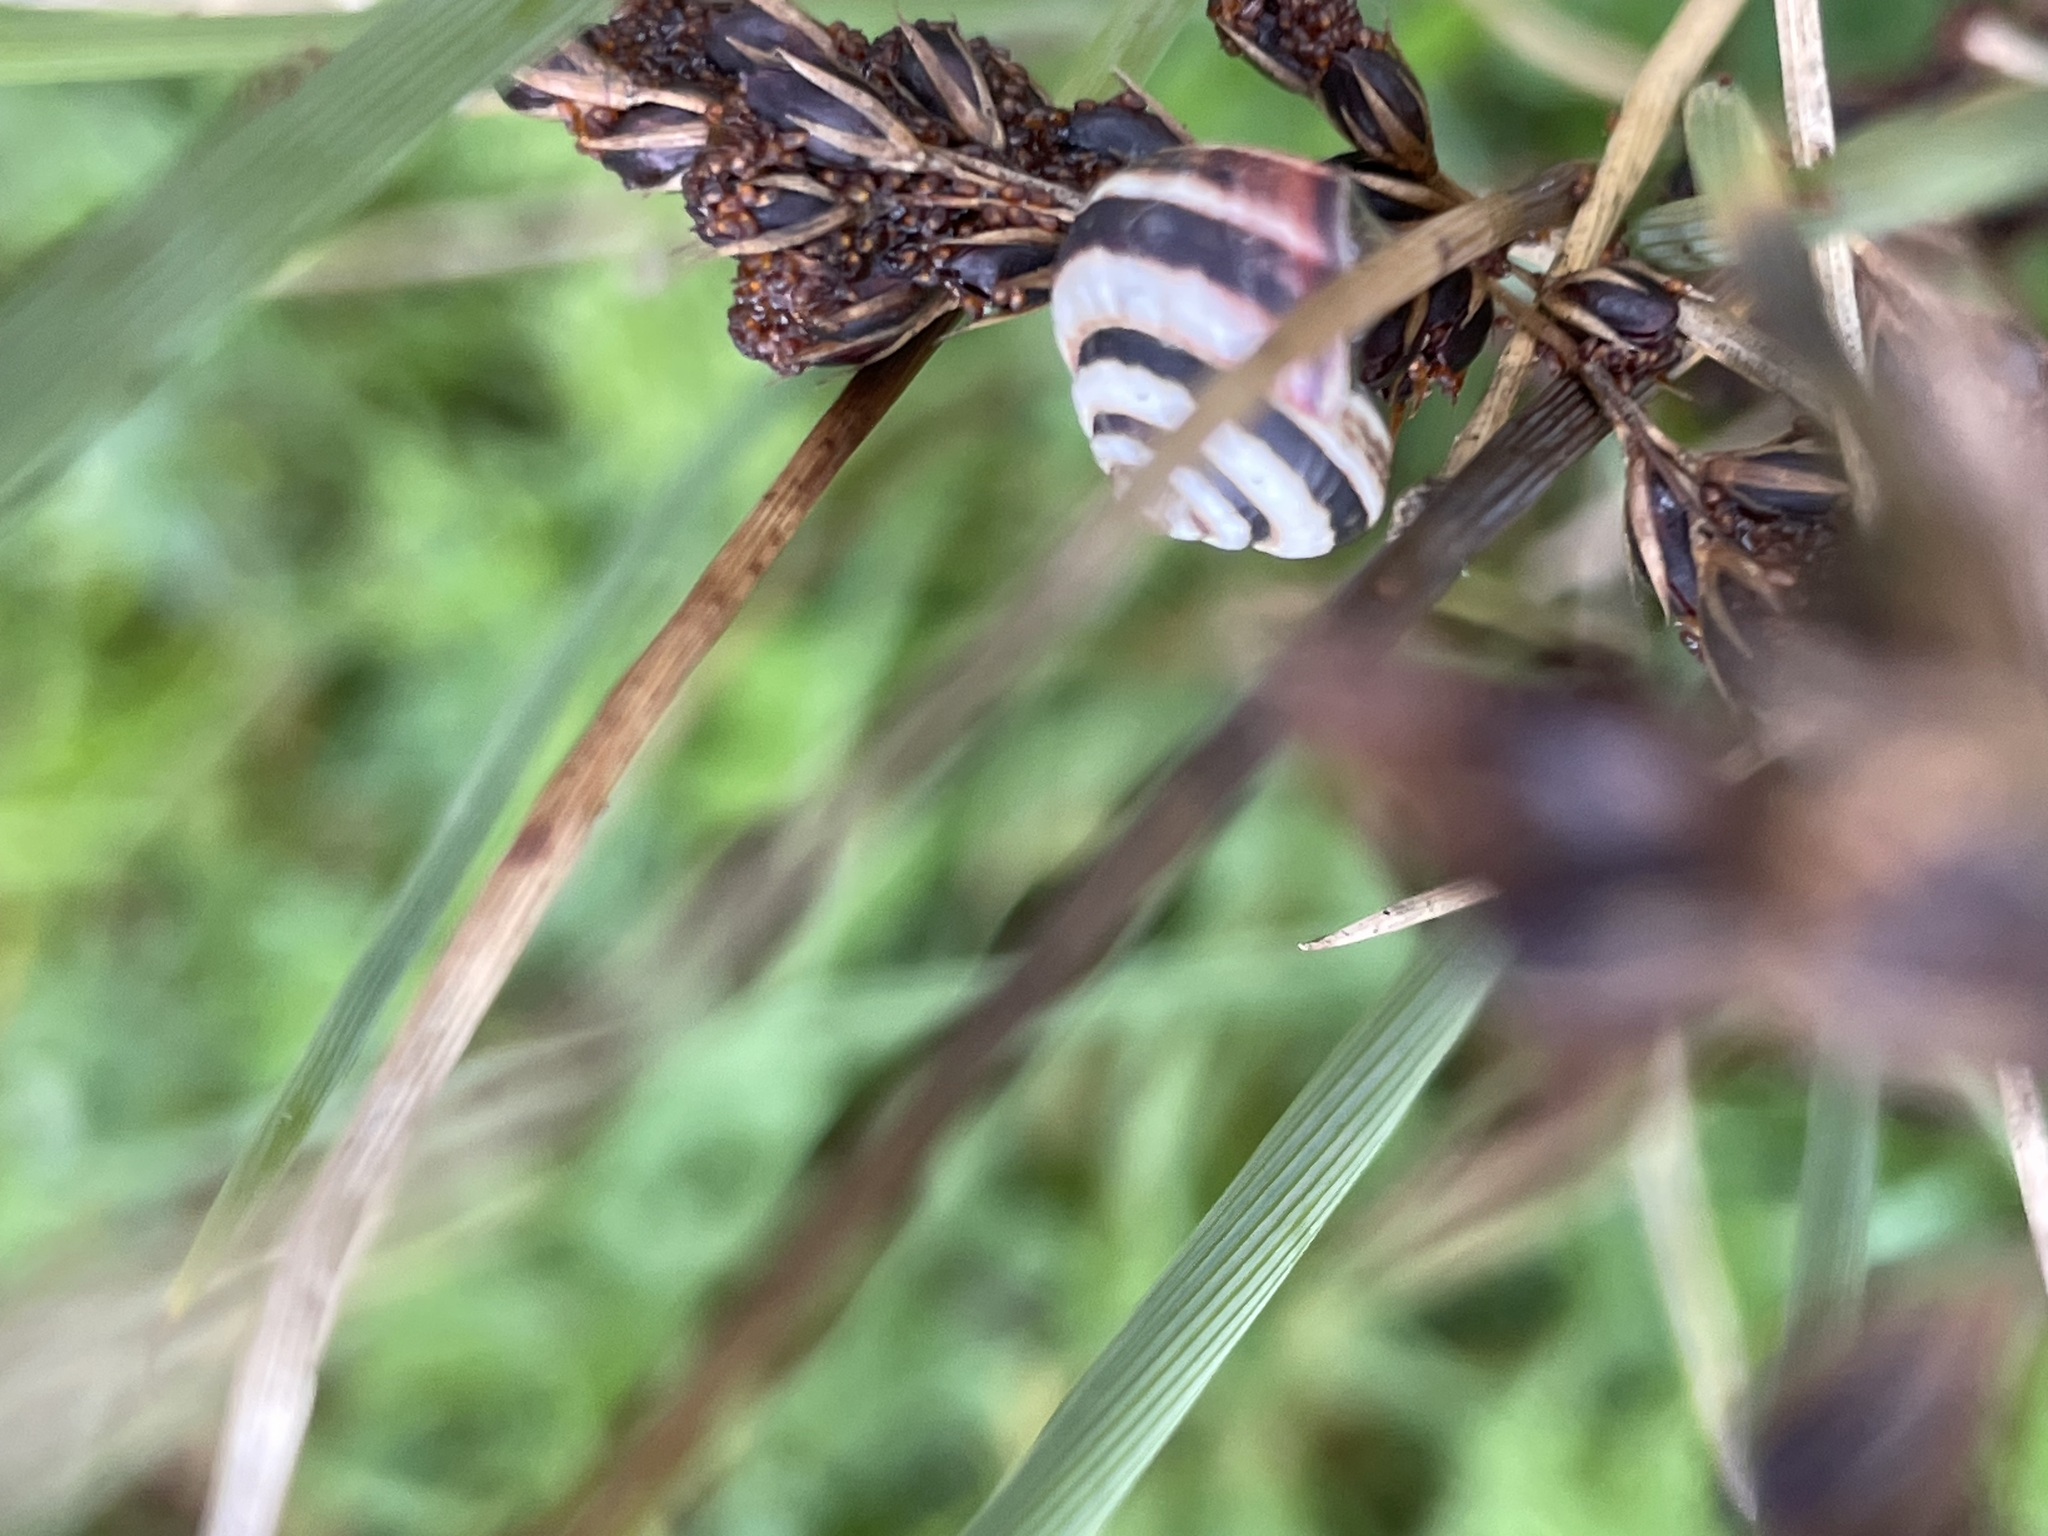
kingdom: Animalia
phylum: Mollusca
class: Gastropoda
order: Stylommatophora
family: Geomitridae
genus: Cernuella
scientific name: Cernuella virgata
